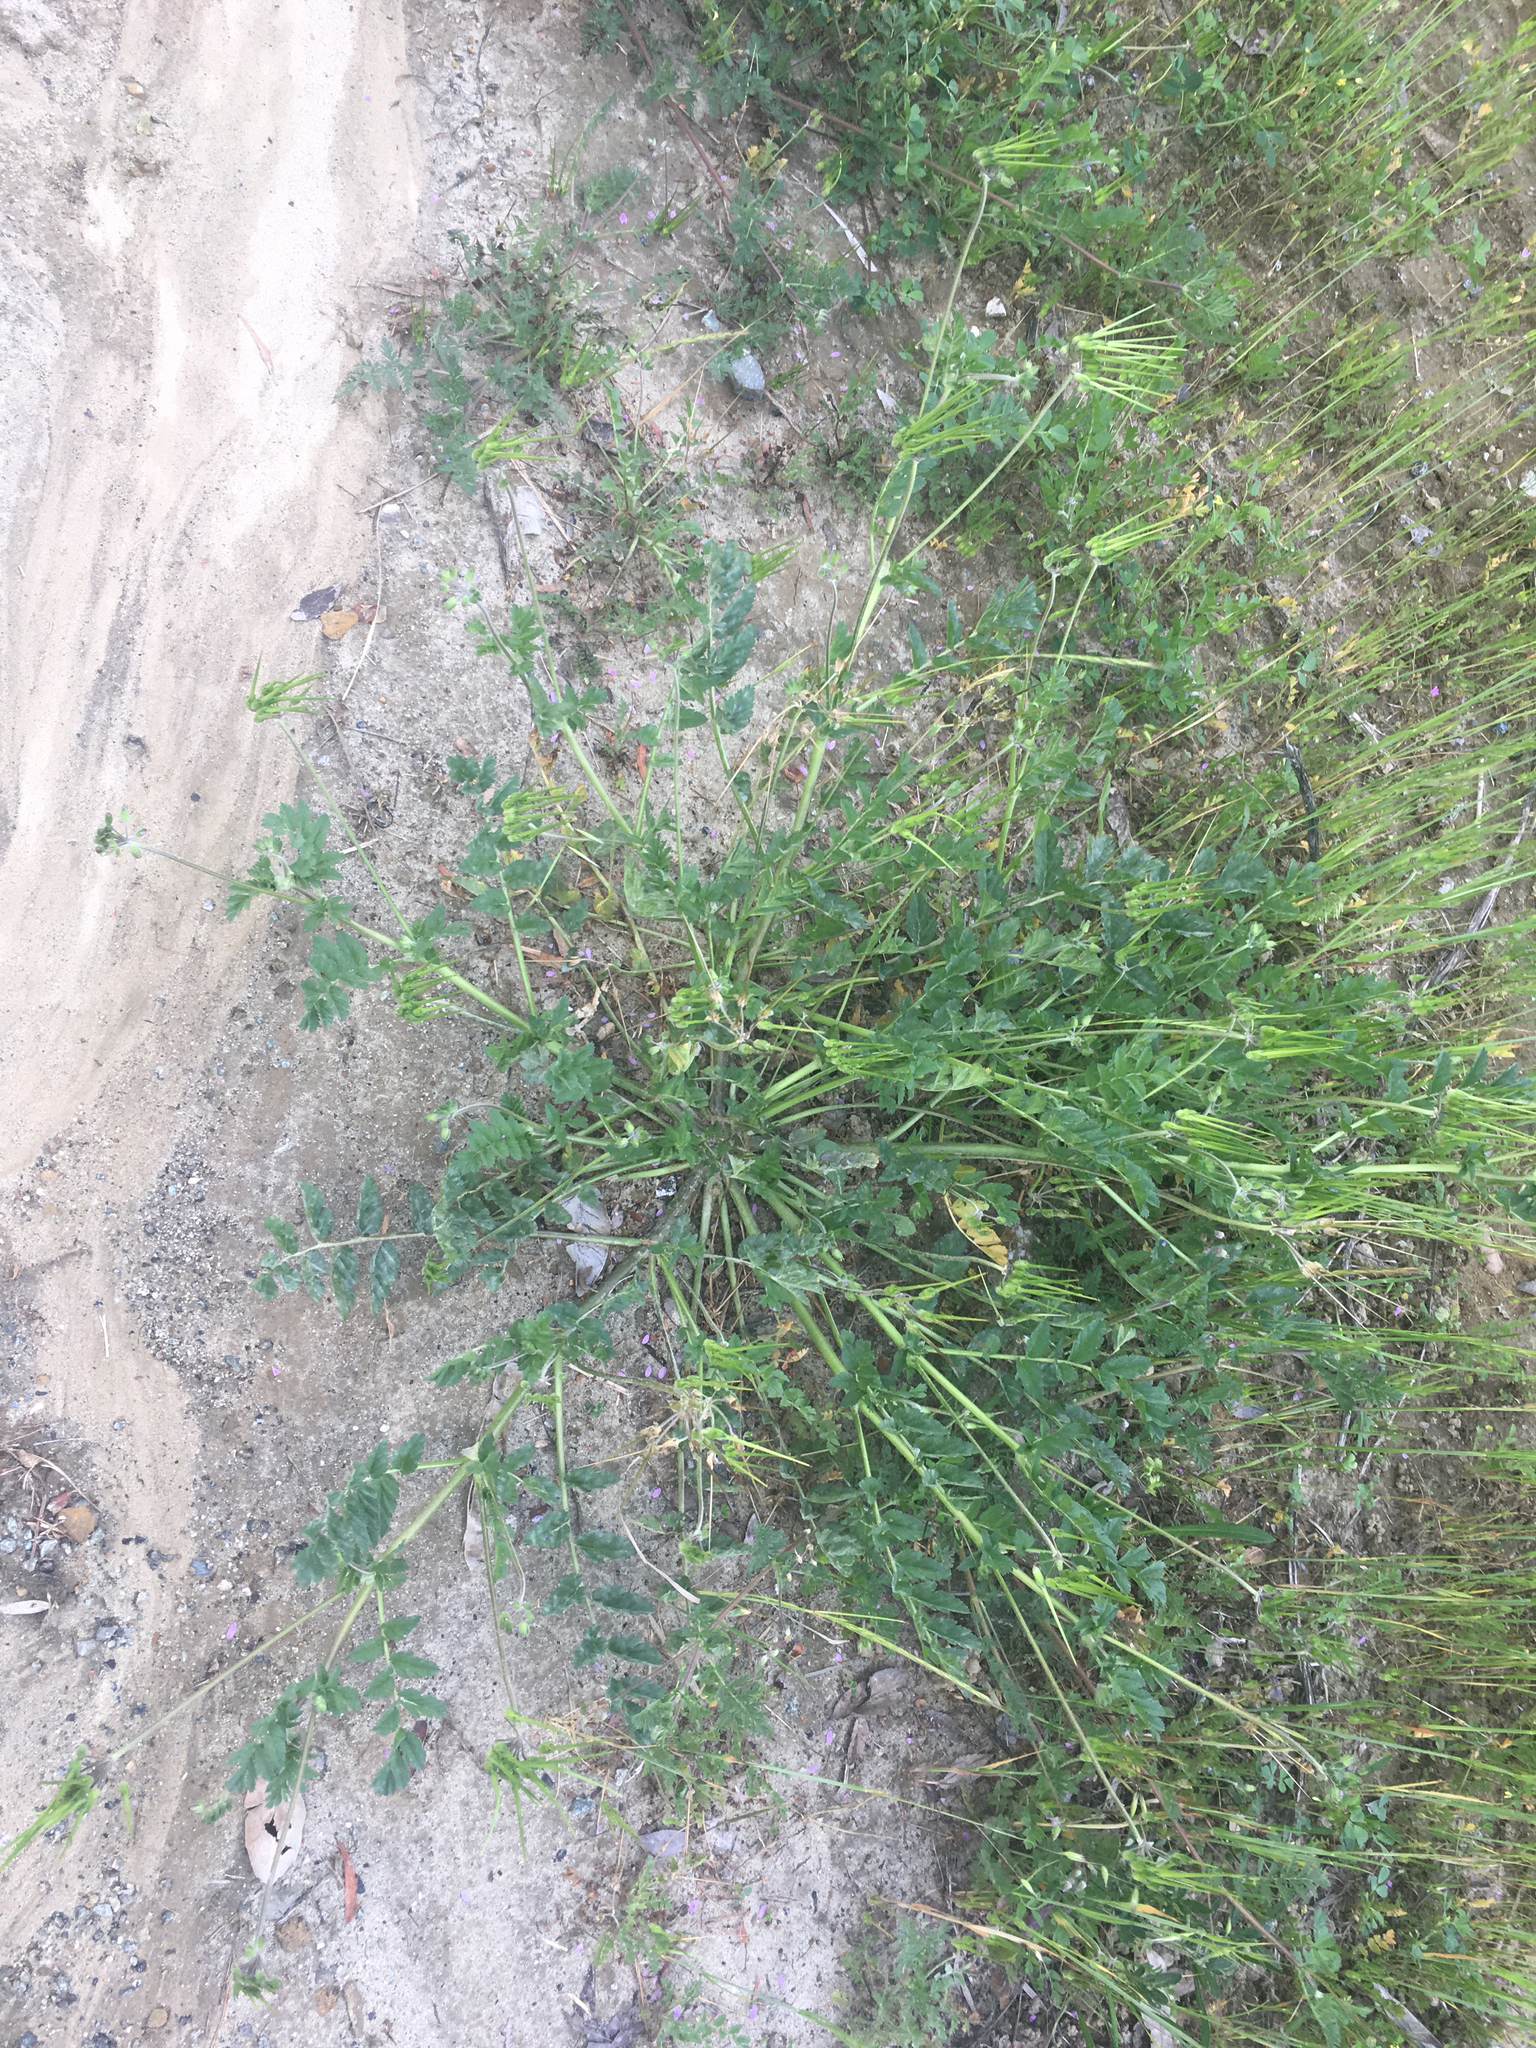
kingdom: Plantae
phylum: Tracheophyta
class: Magnoliopsida
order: Geraniales
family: Geraniaceae
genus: Erodium
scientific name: Erodium moschatum
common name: Musk stork's-bill
